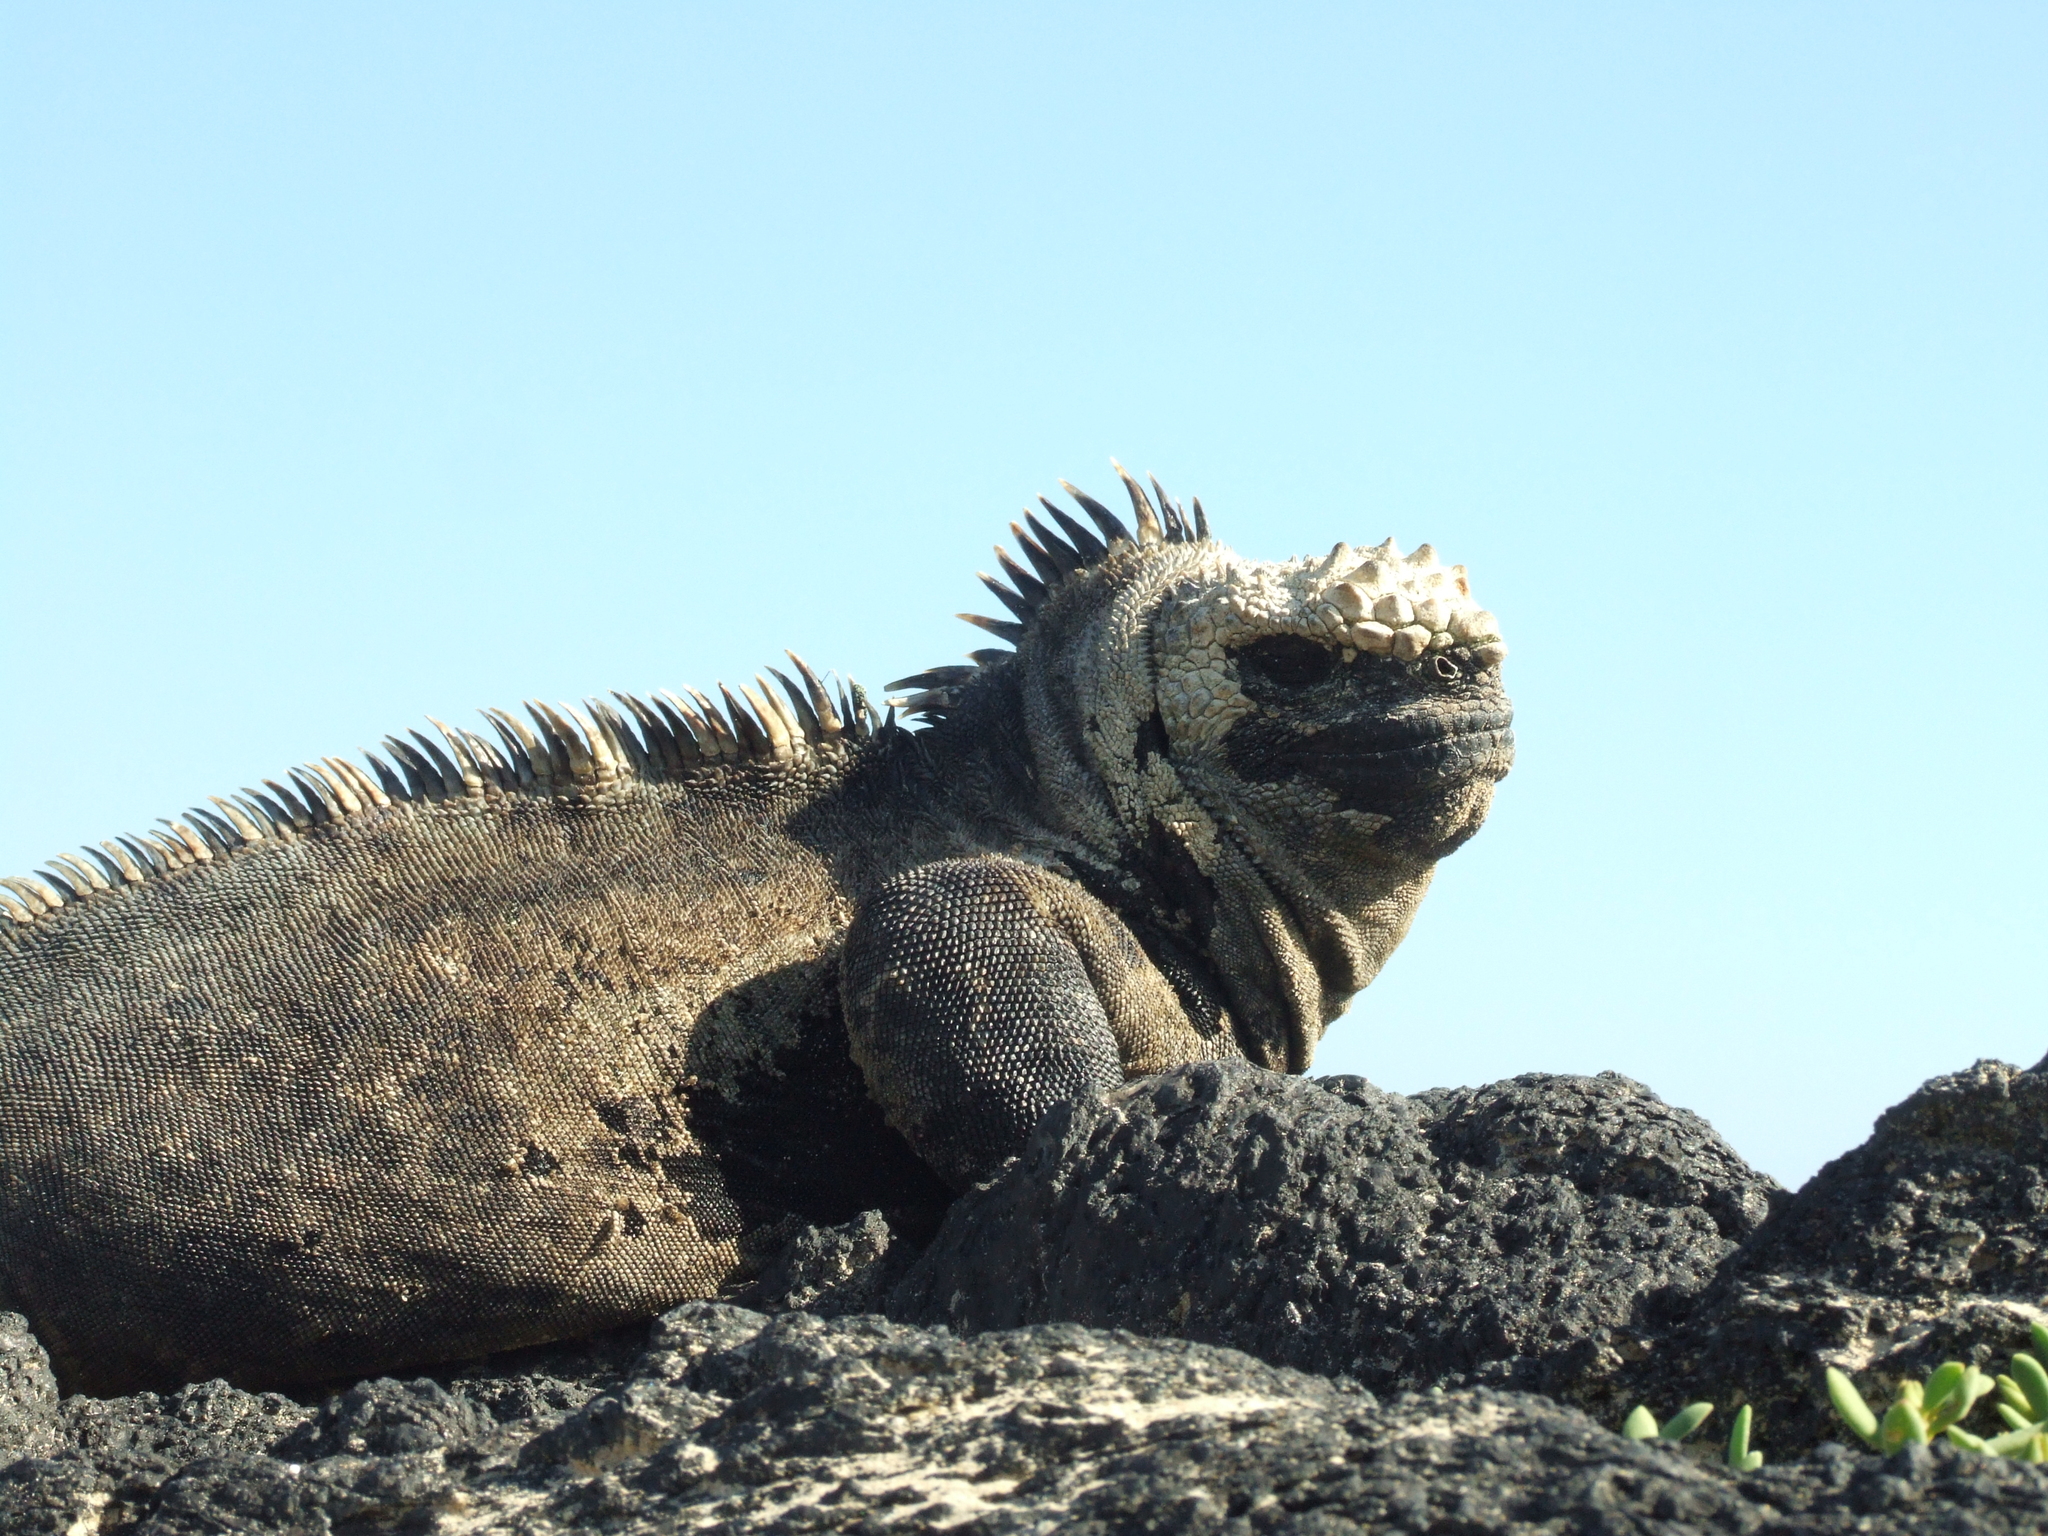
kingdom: Animalia
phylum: Chordata
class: Squamata
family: Iguanidae
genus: Amblyrhynchus
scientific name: Amblyrhynchus cristatus
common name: Marine iguana
